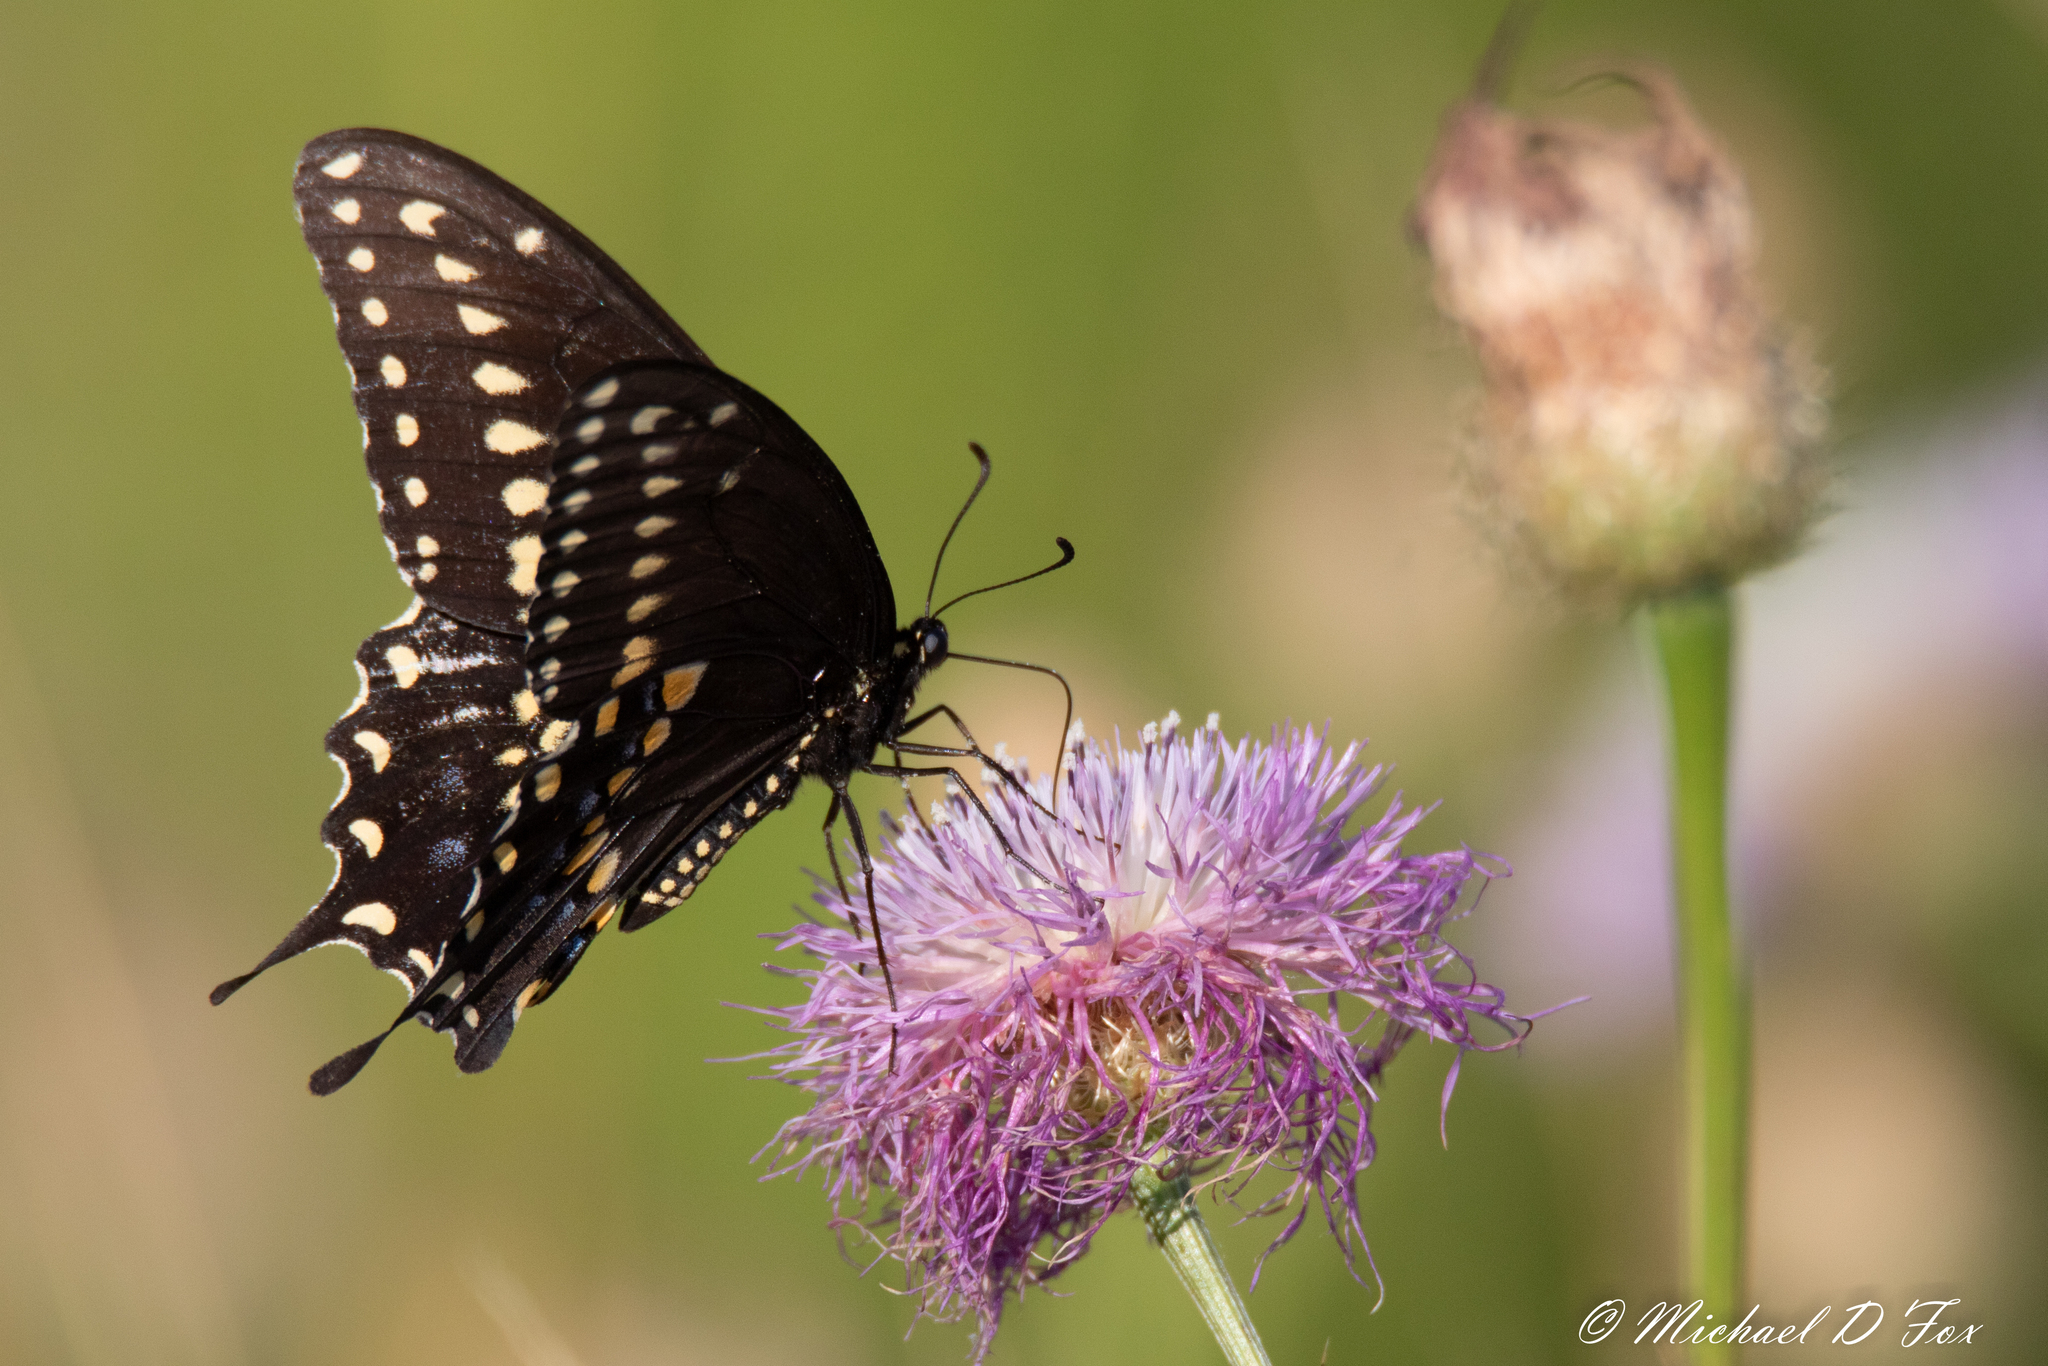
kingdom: Animalia
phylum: Arthropoda
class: Insecta
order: Lepidoptera
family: Papilionidae
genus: Papilio
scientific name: Papilio polyxenes
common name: Black swallowtail
